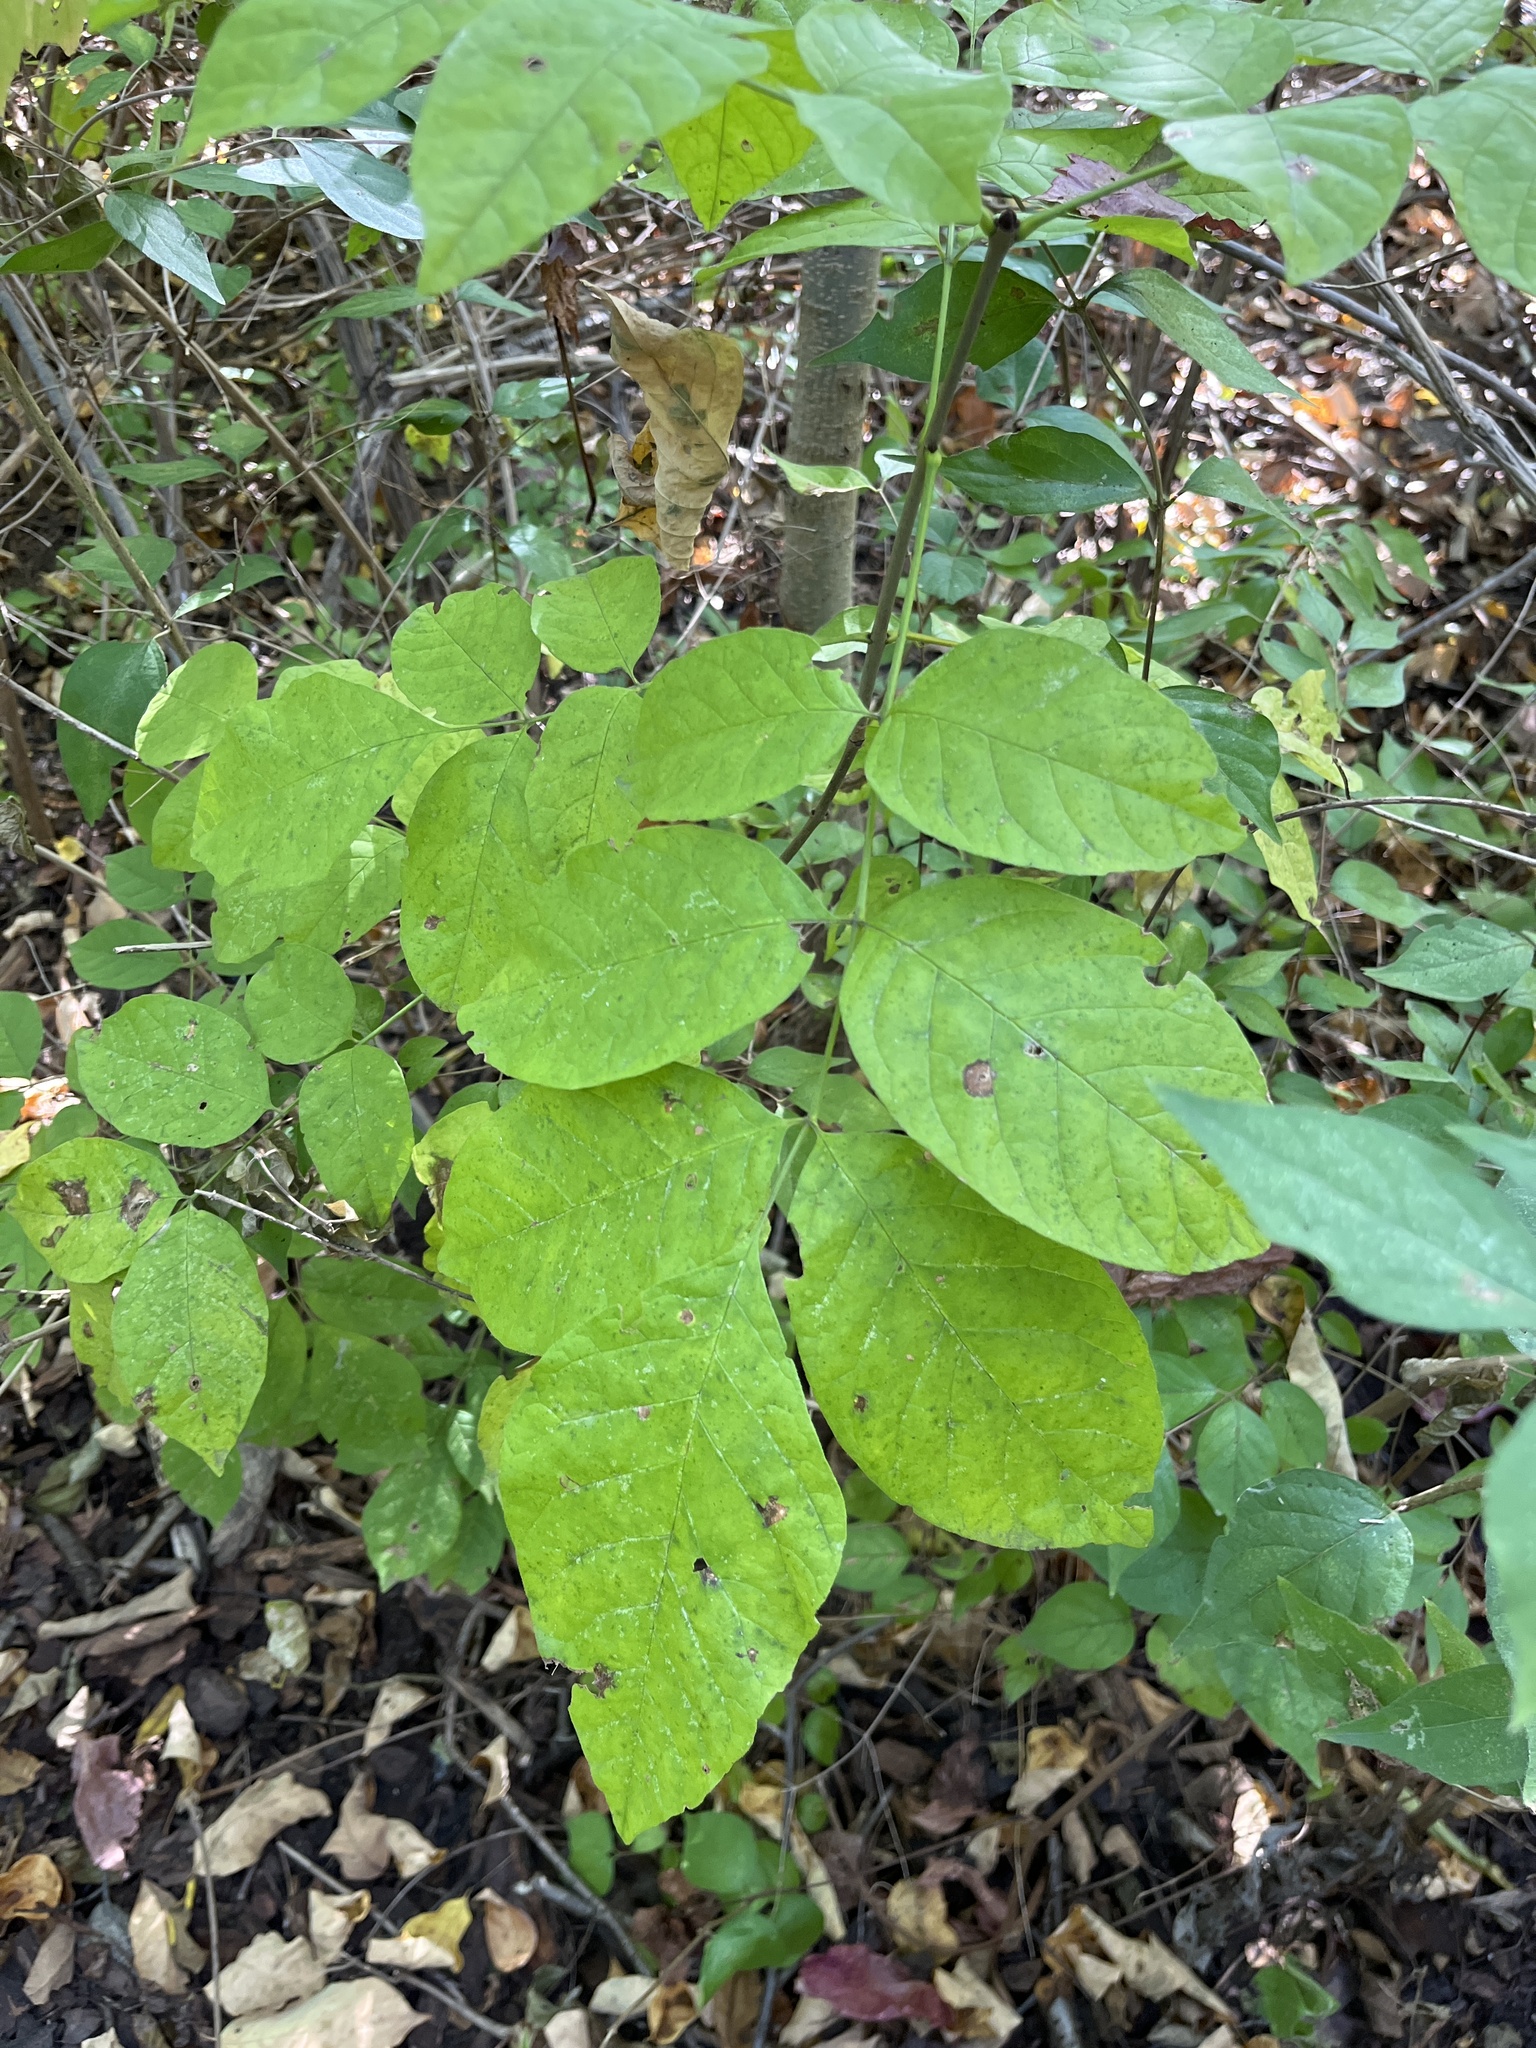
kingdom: Plantae
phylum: Tracheophyta
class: Magnoliopsida
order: Lamiales
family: Oleaceae
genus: Fraxinus
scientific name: Fraxinus americana
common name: White ash
